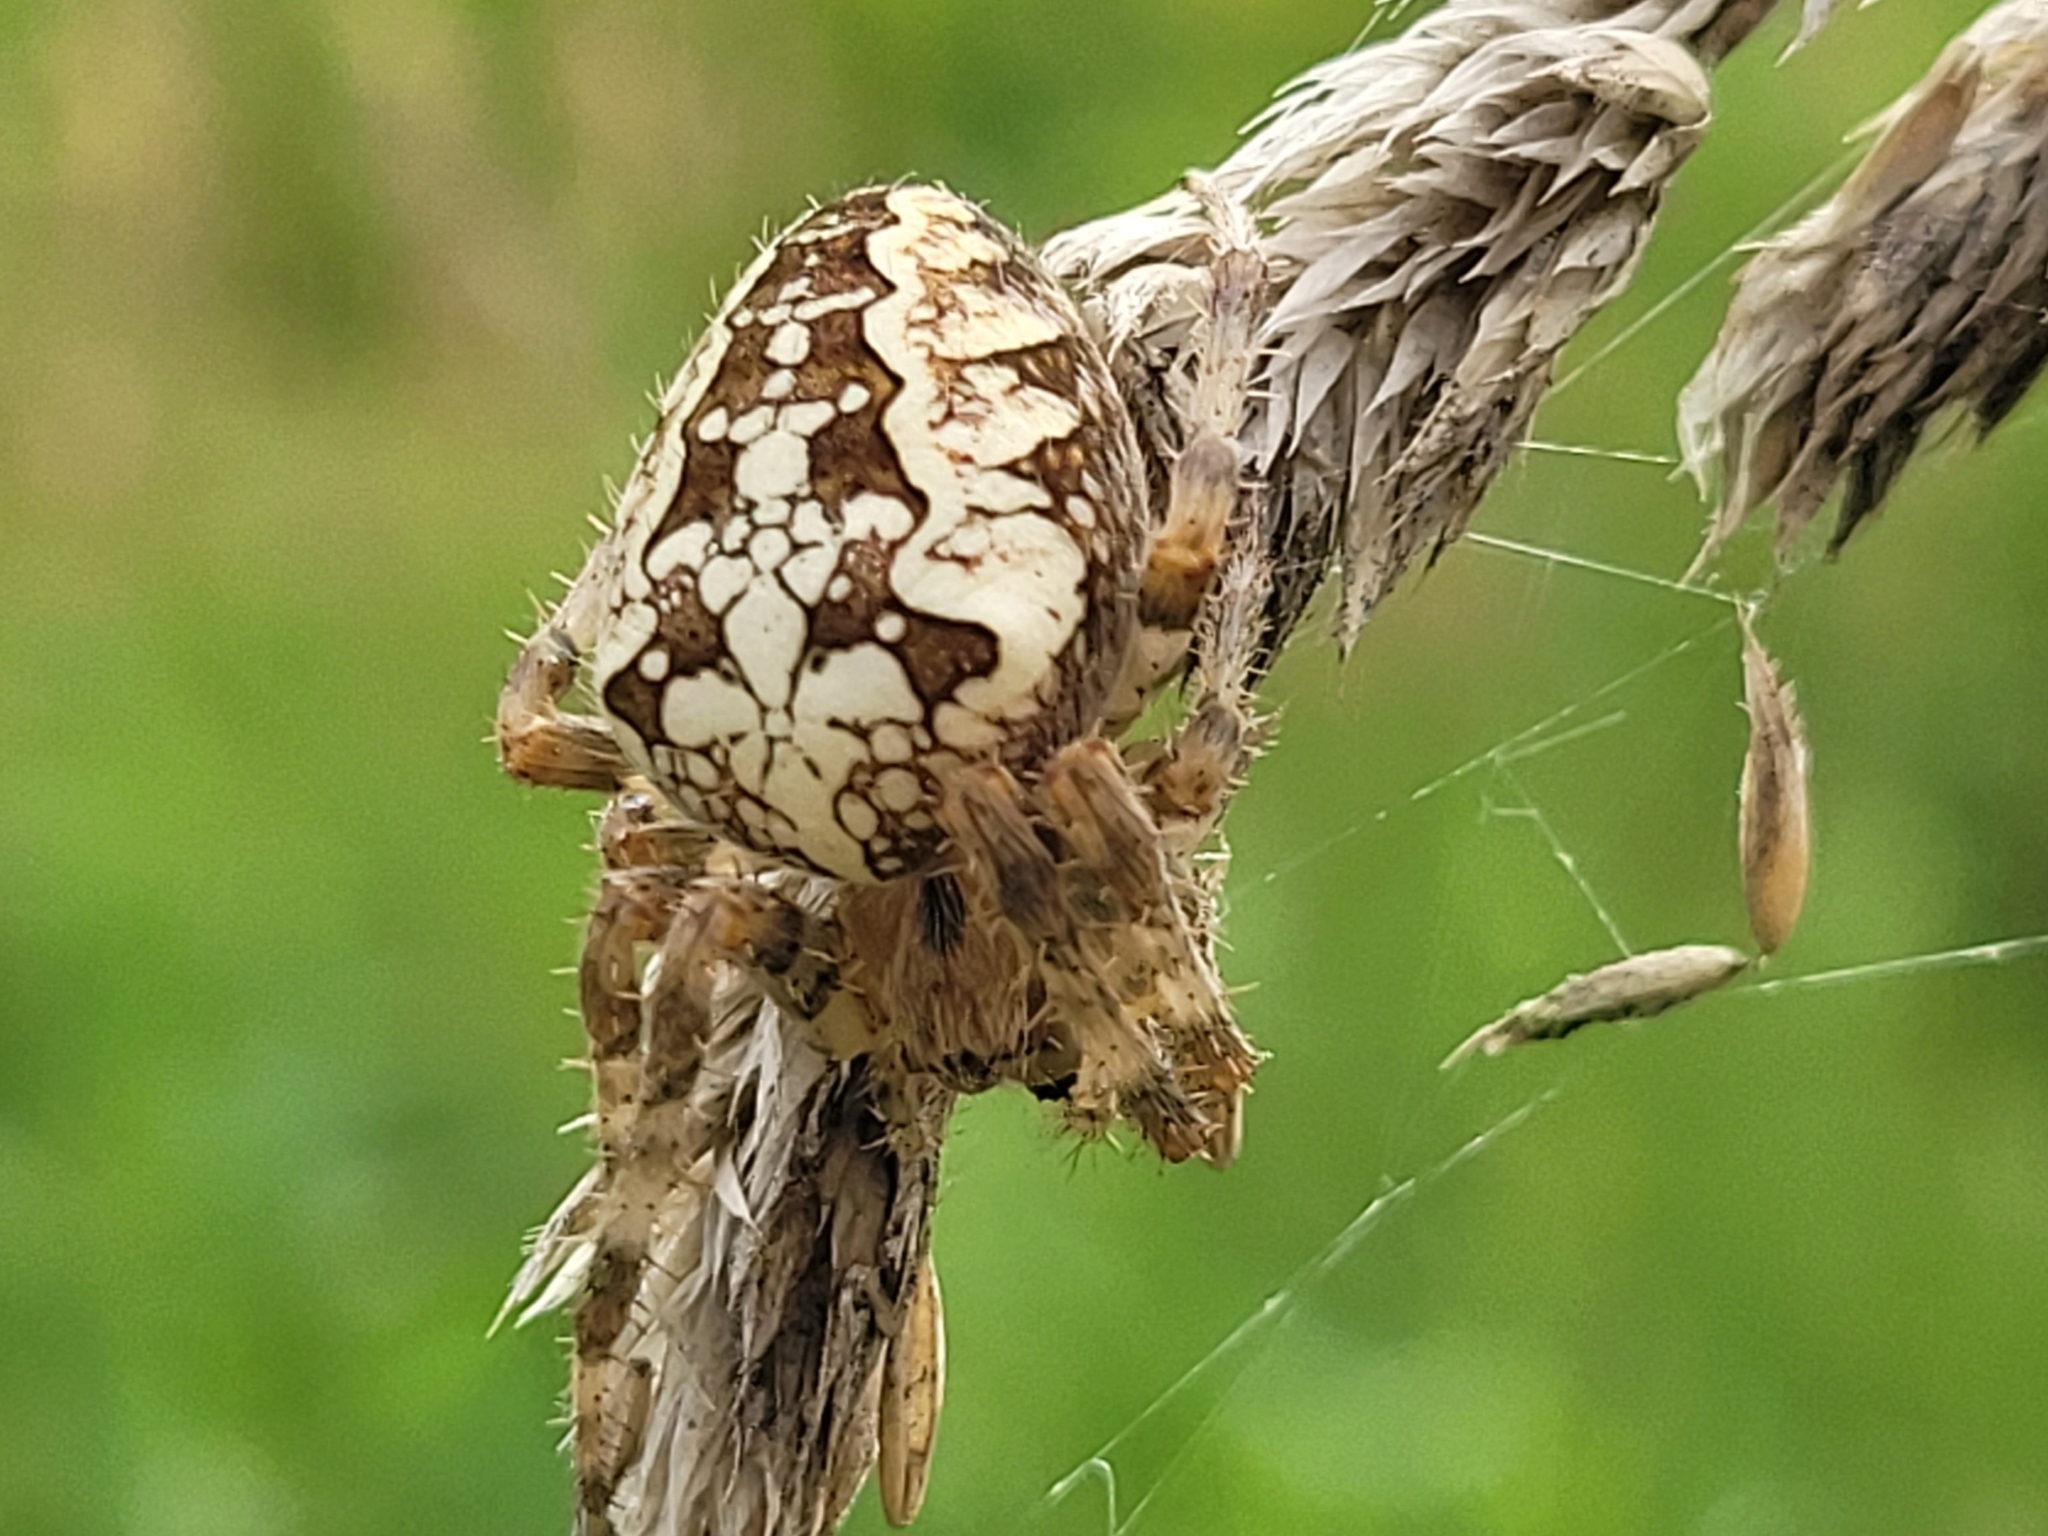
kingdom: Animalia
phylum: Arthropoda
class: Arachnida
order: Araneae
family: Araneidae
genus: Araneus
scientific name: Araneus diadematus
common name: Cross orbweaver
